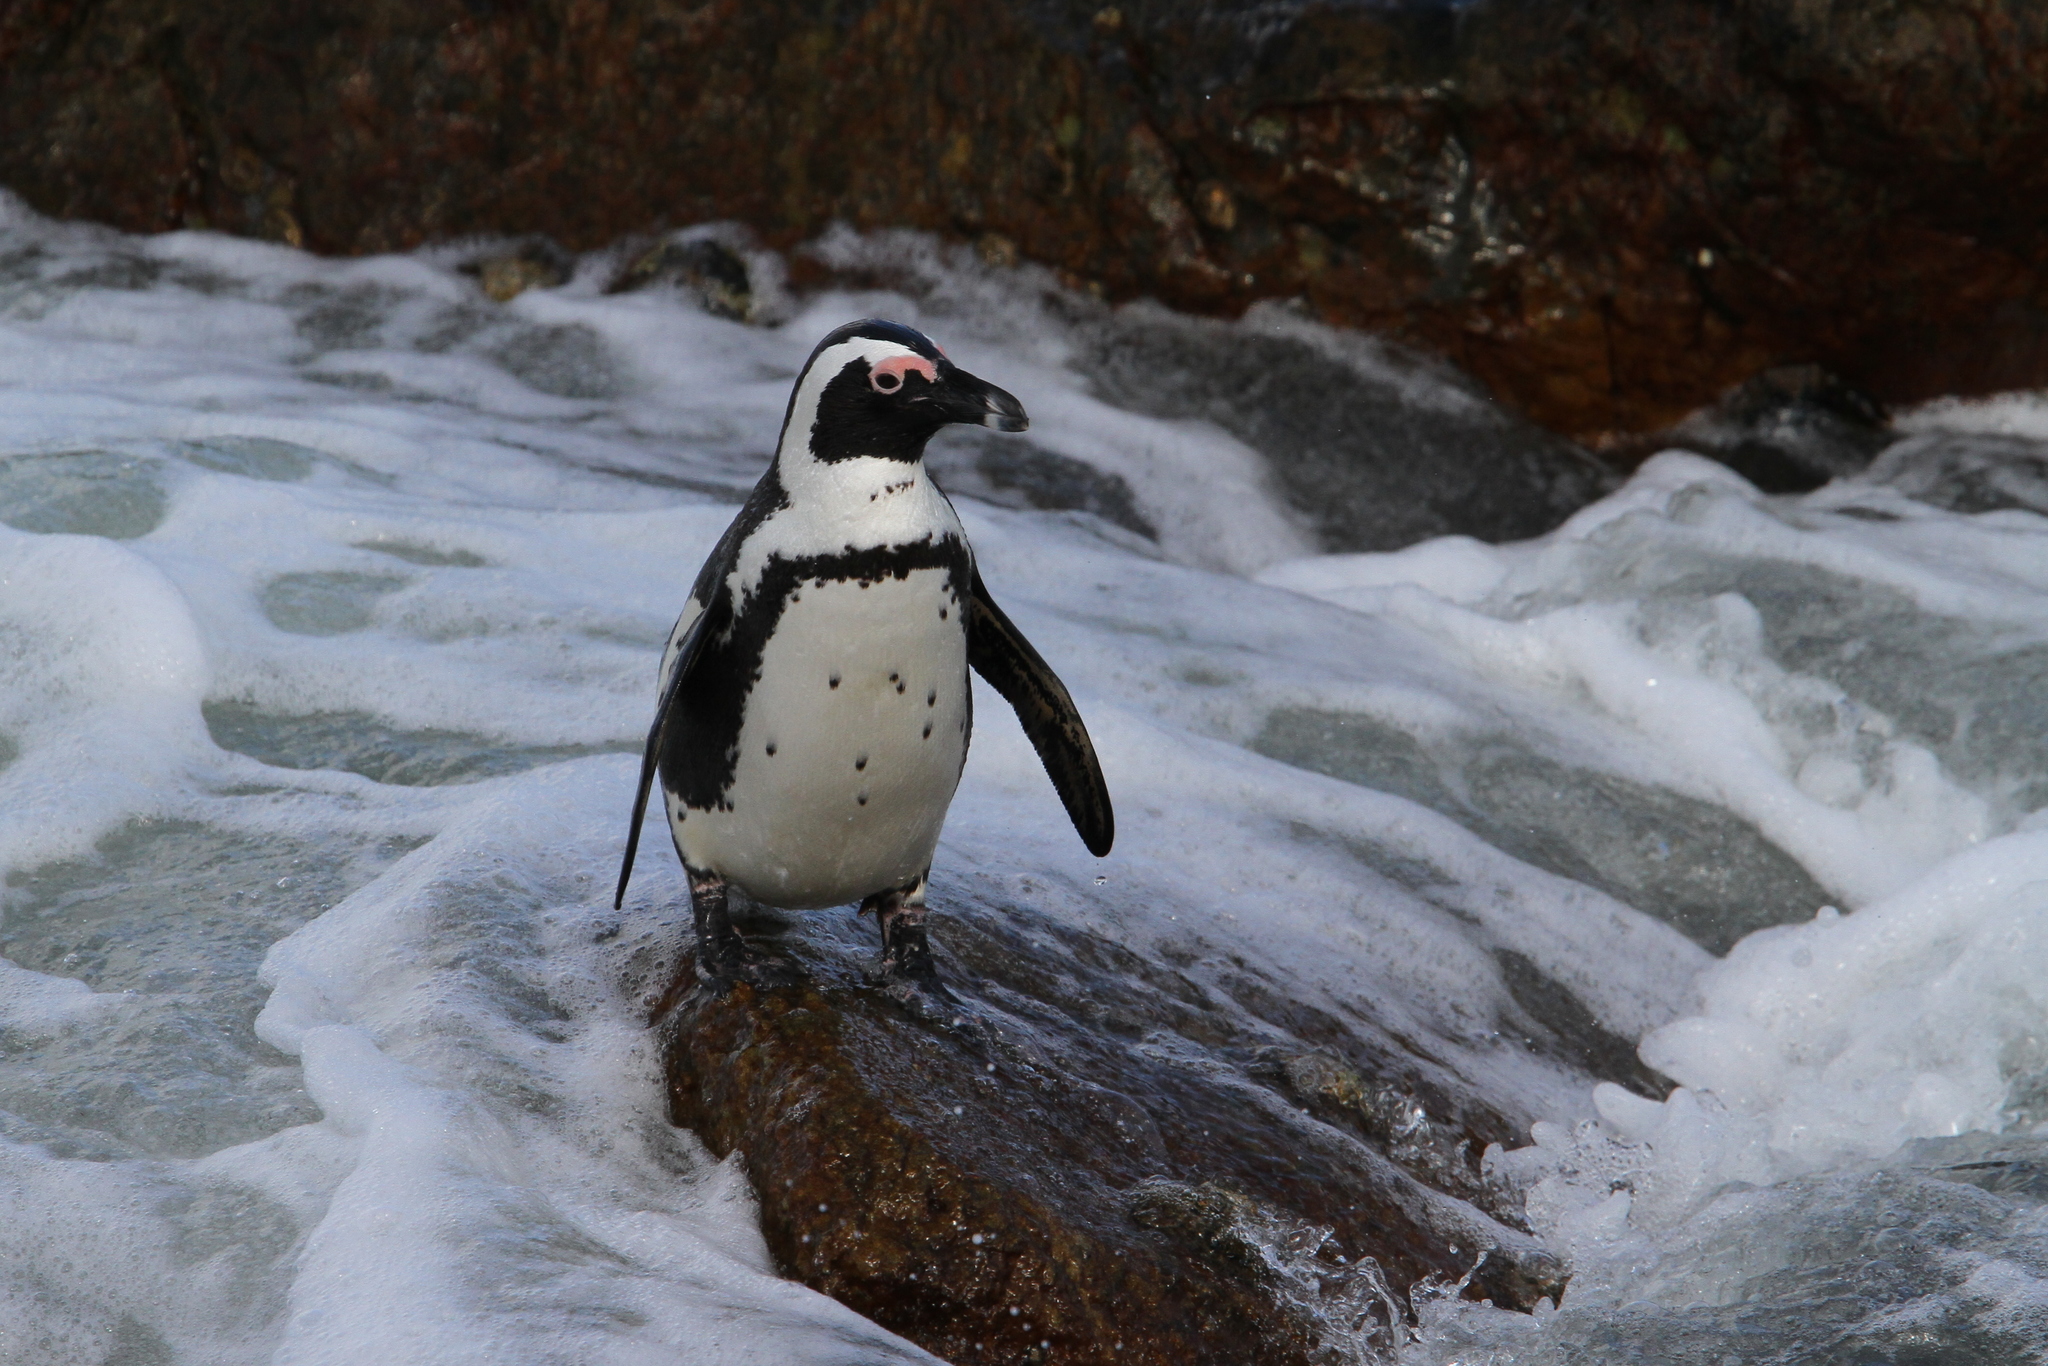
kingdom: Animalia
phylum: Chordata
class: Aves
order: Sphenisciformes
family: Spheniscidae
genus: Spheniscus
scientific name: Spheniscus demersus
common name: African penguin
